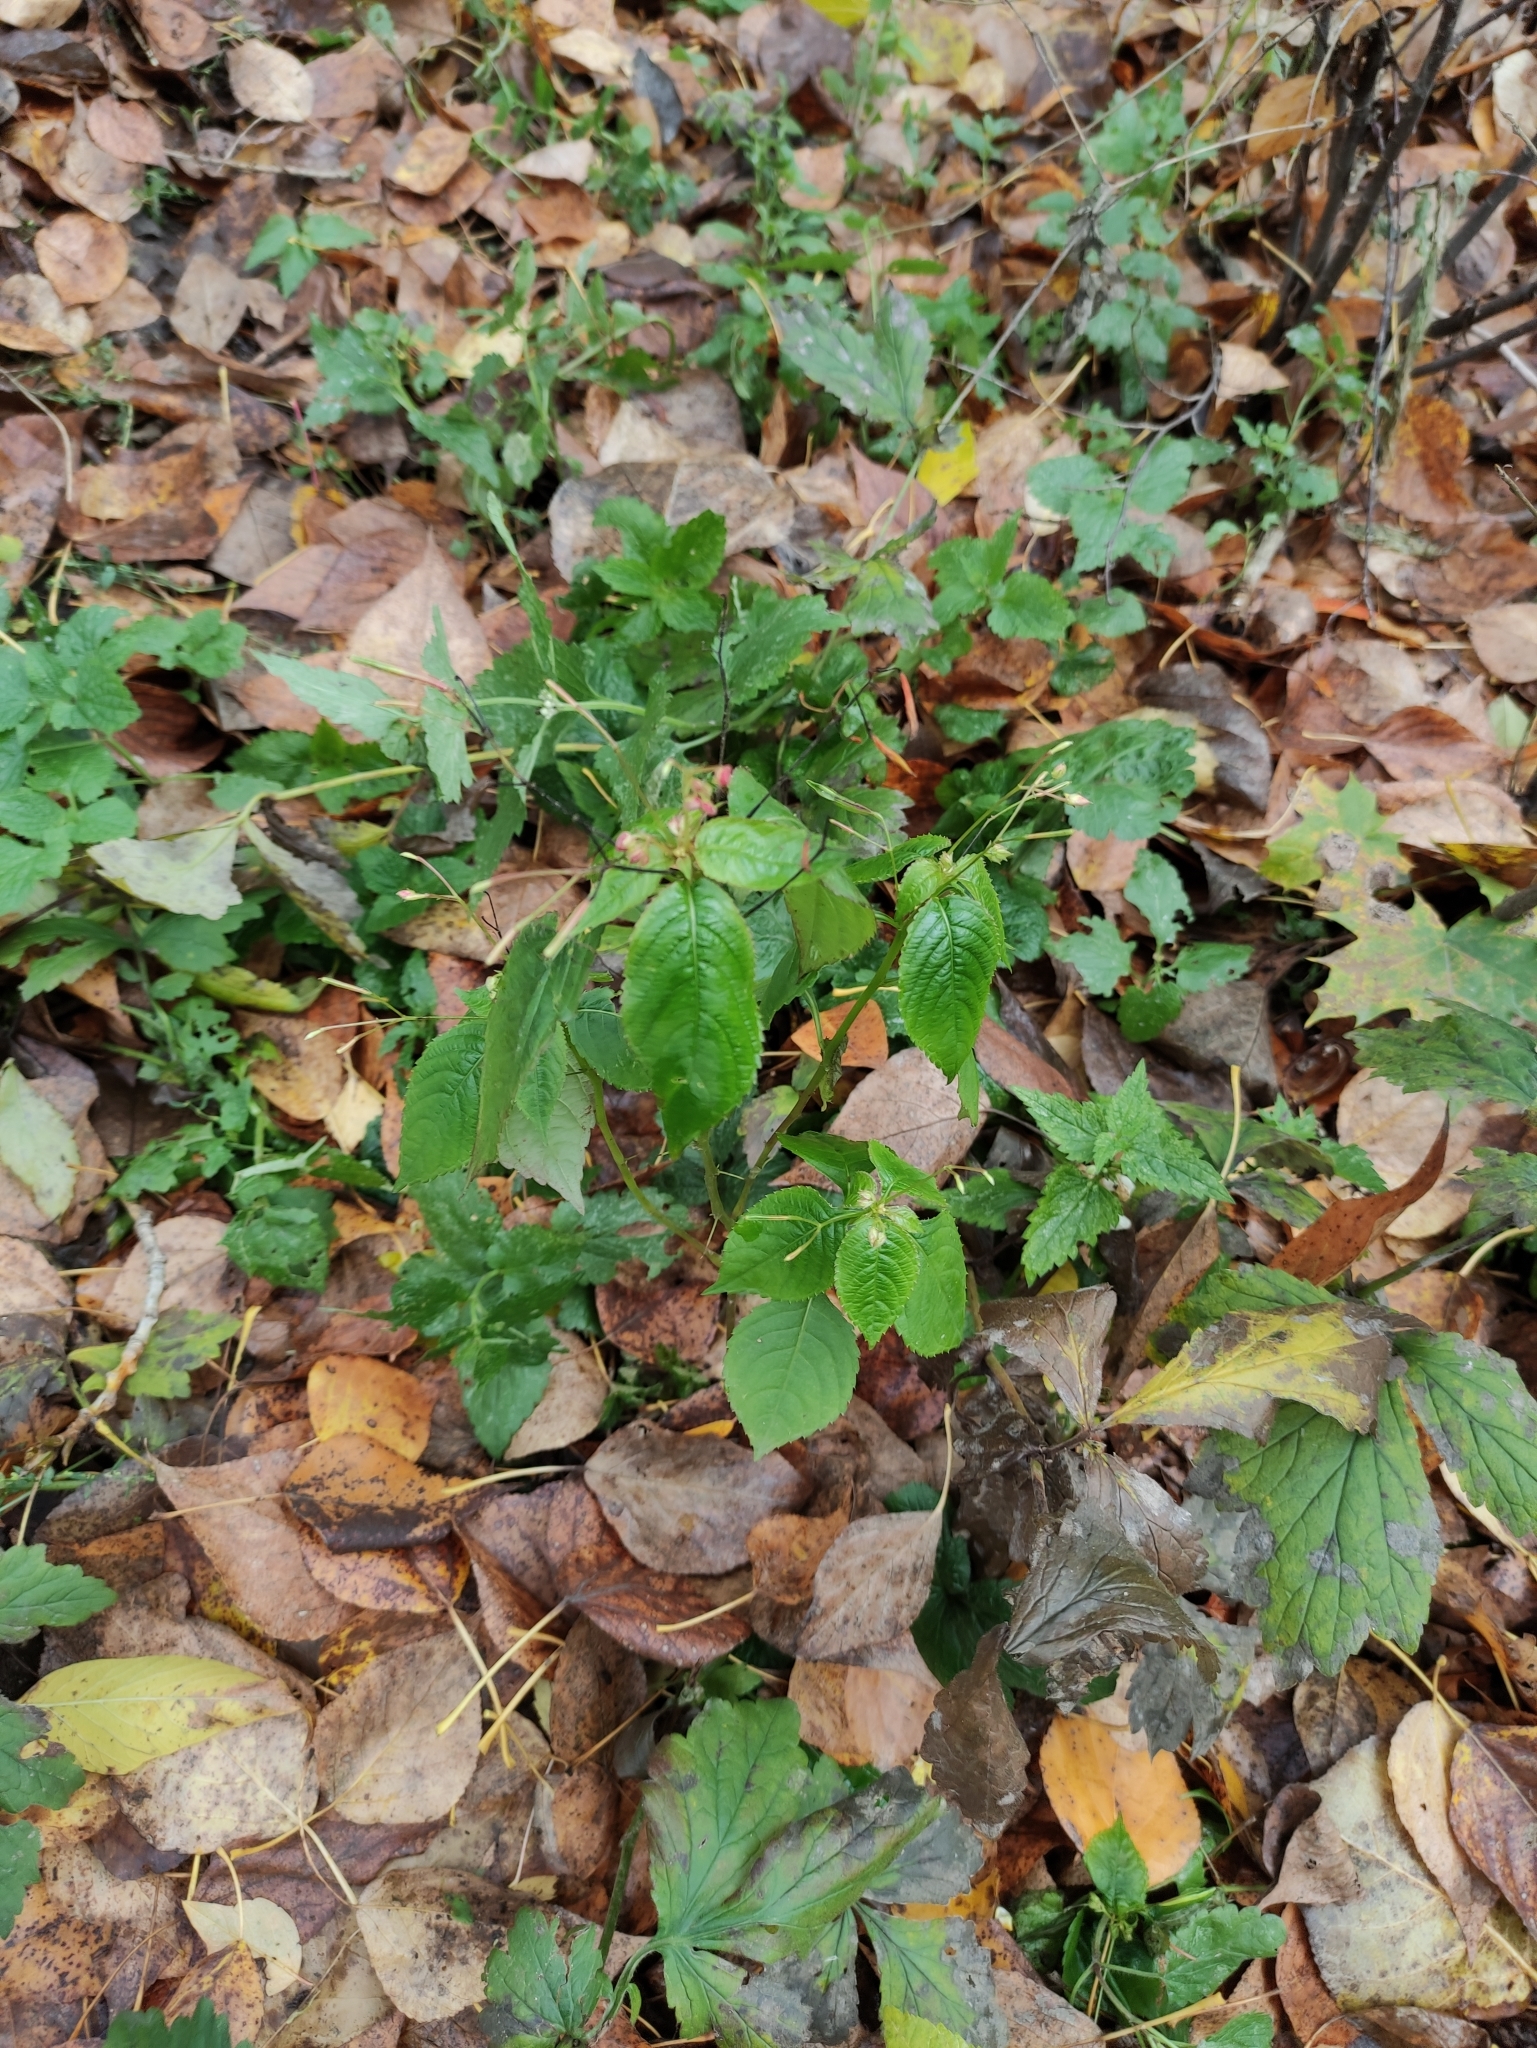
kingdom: Plantae
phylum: Tracheophyta
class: Magnoliopsida
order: Ericales
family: Balsaminaceae
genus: Impatiens
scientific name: Impatiens parviflora
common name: Small balsam
